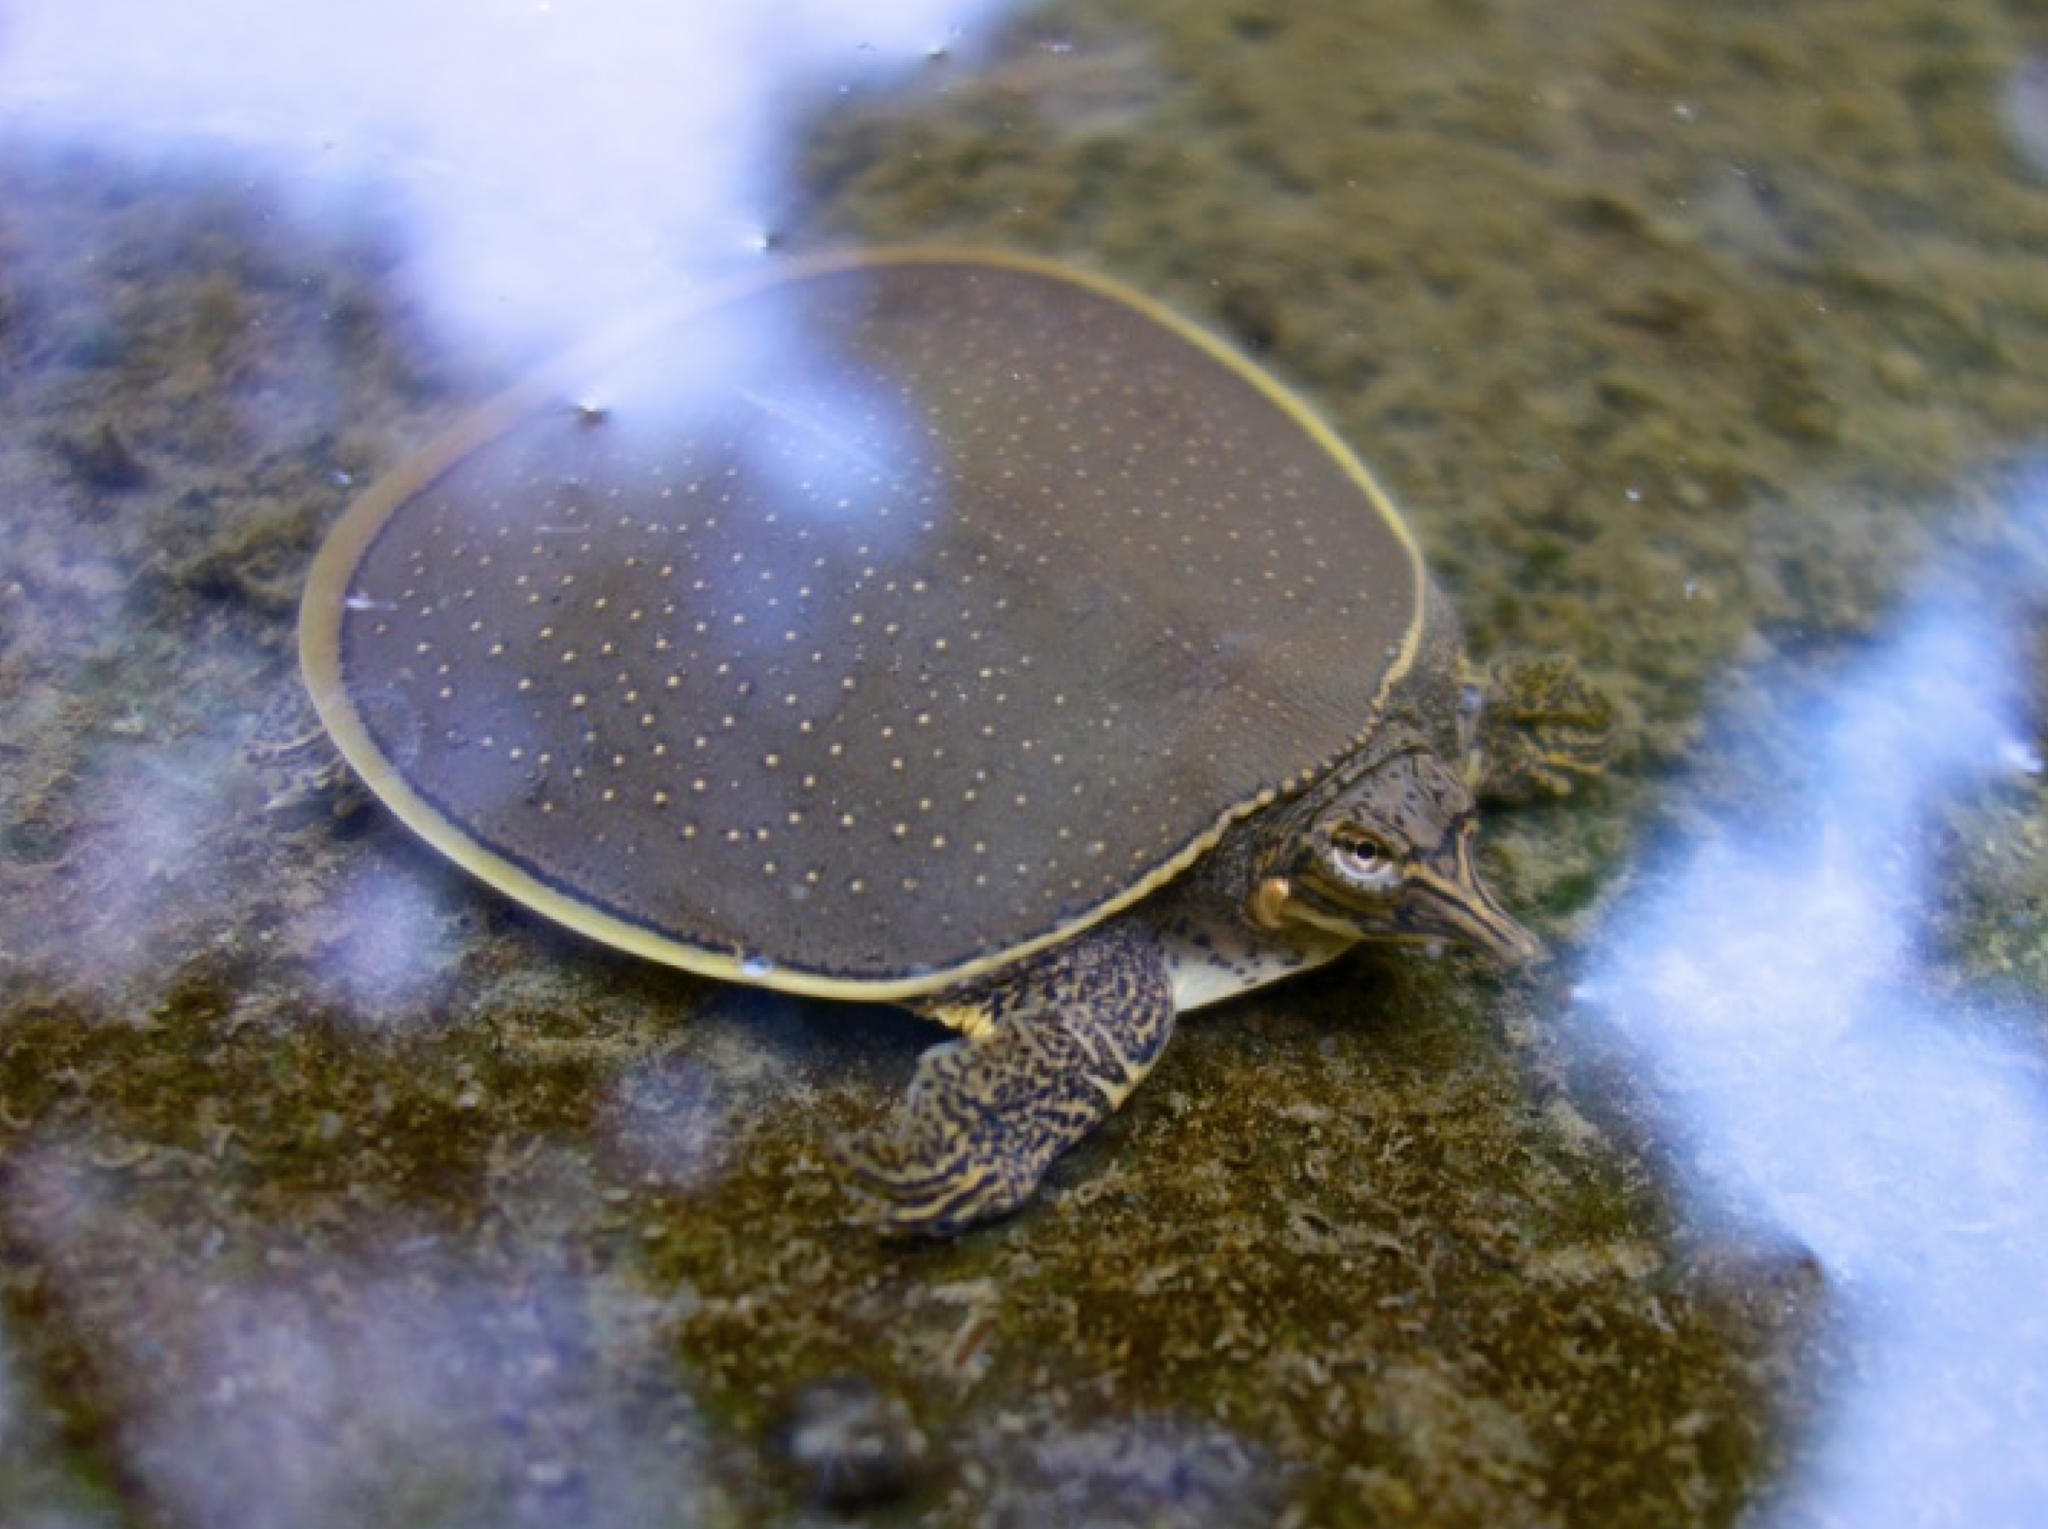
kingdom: Animalia
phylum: Chordata
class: Testudines
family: Trionychidae
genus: Apalone
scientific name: Apalone spinifera
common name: Spiny softshell turtle
